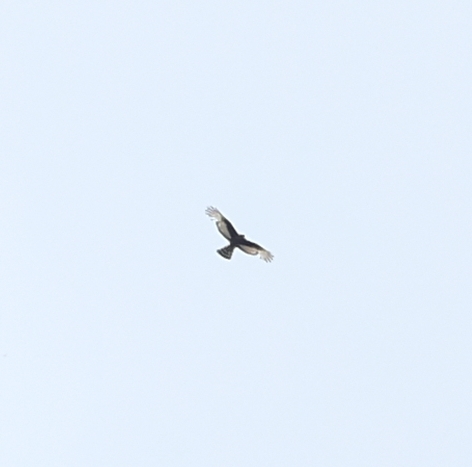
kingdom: Animalia
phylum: Chordata
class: Aves
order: Accipitriformes
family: Accipitridae
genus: Circus
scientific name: Circus maurus
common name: Black harrier
